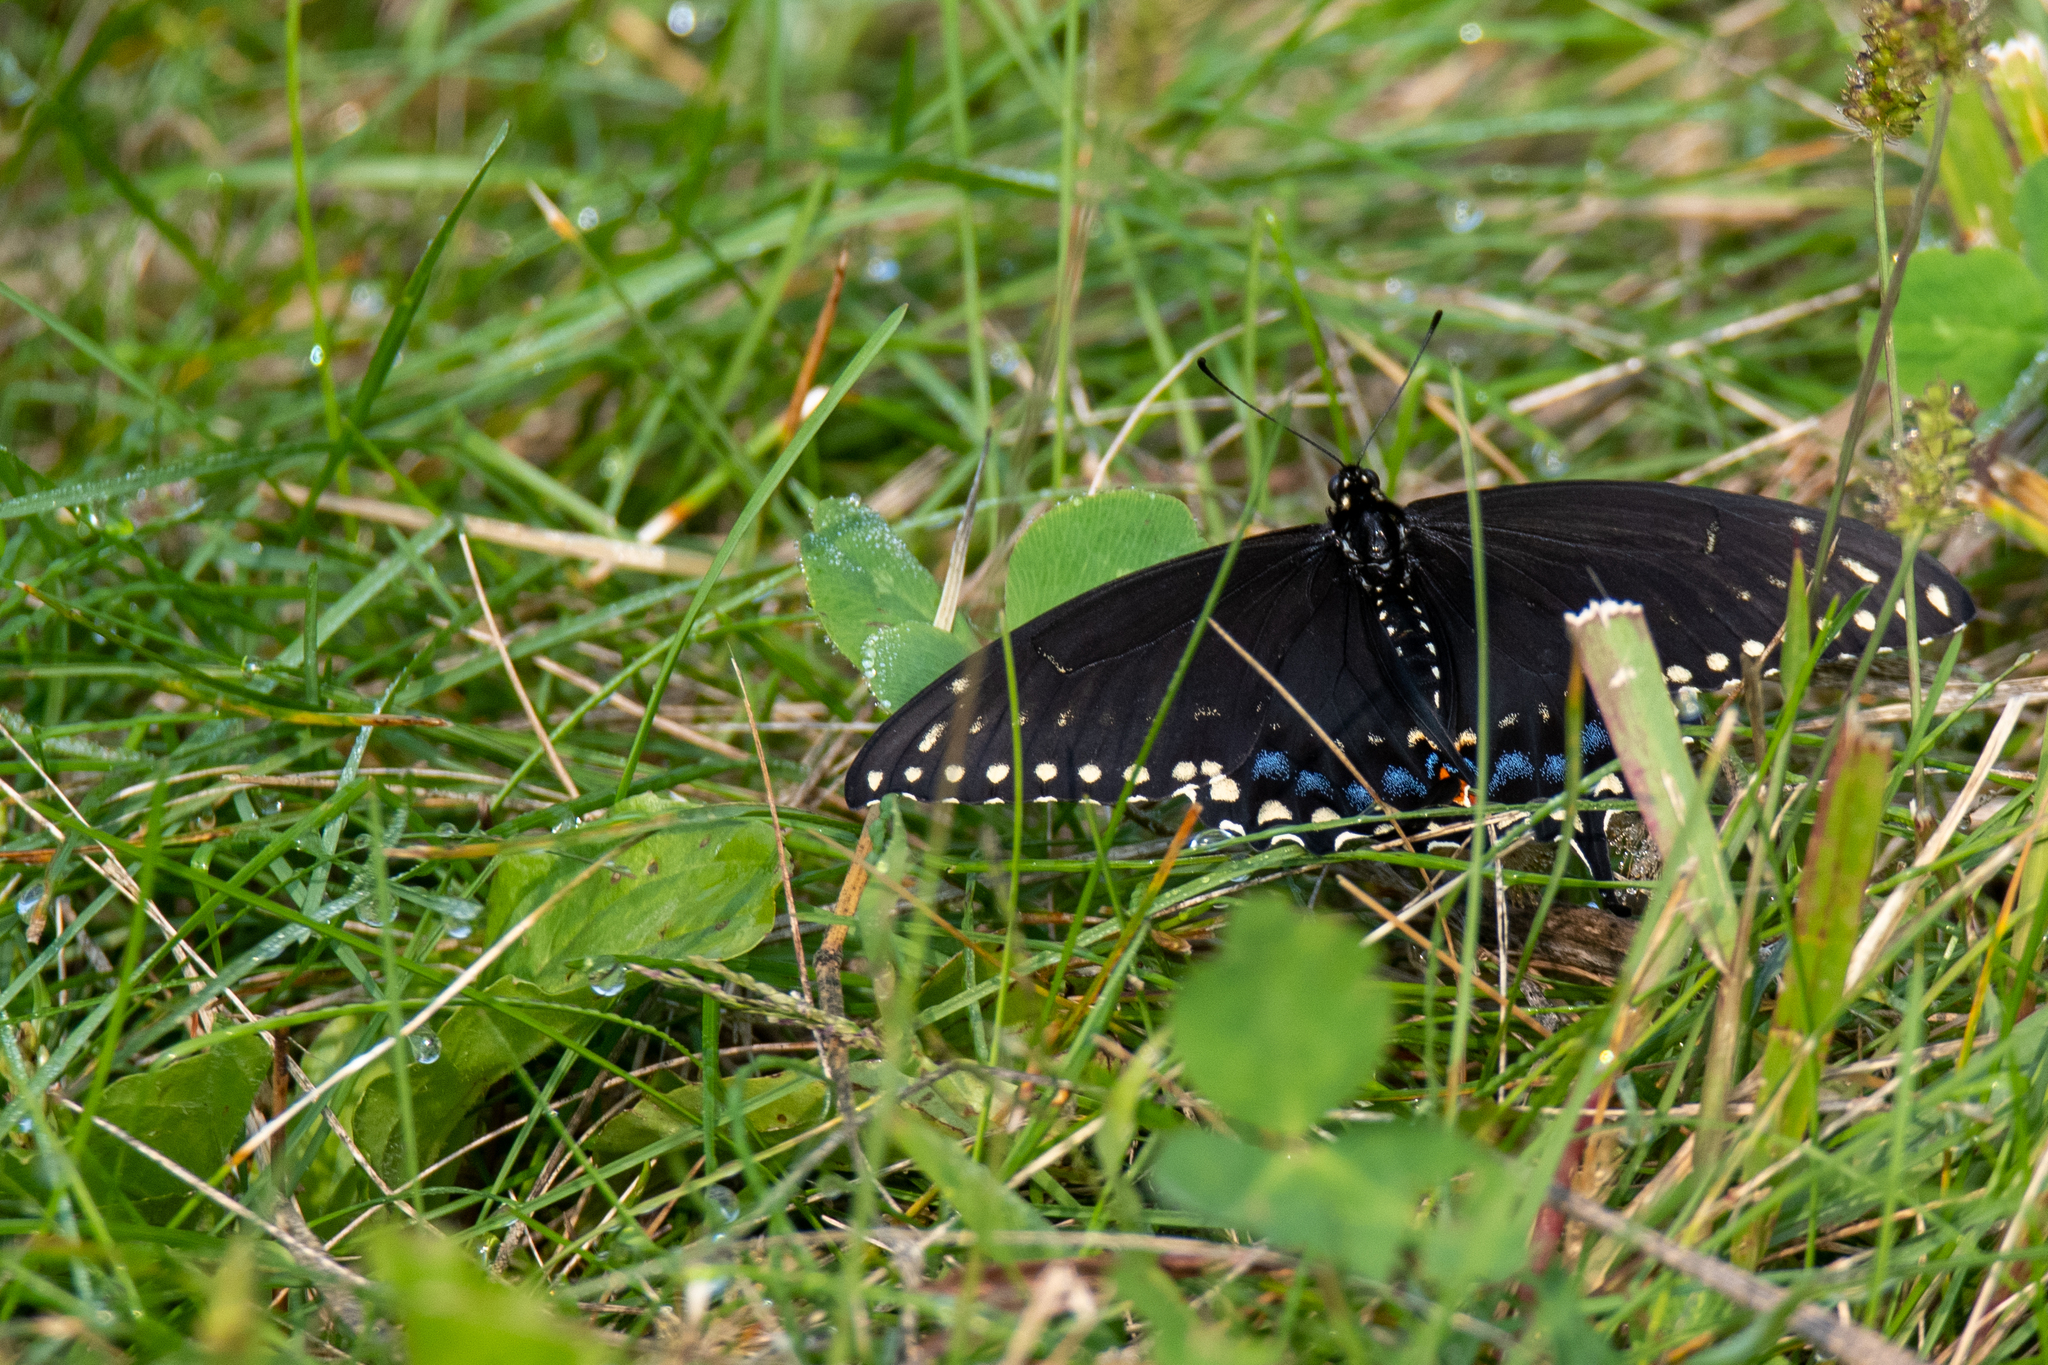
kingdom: Animalia
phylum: Arthropoda
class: Insecta
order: Lepidoptera
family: Papilionidae
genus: Papilio
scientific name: Papilio polyxenes
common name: Black swallowtail
